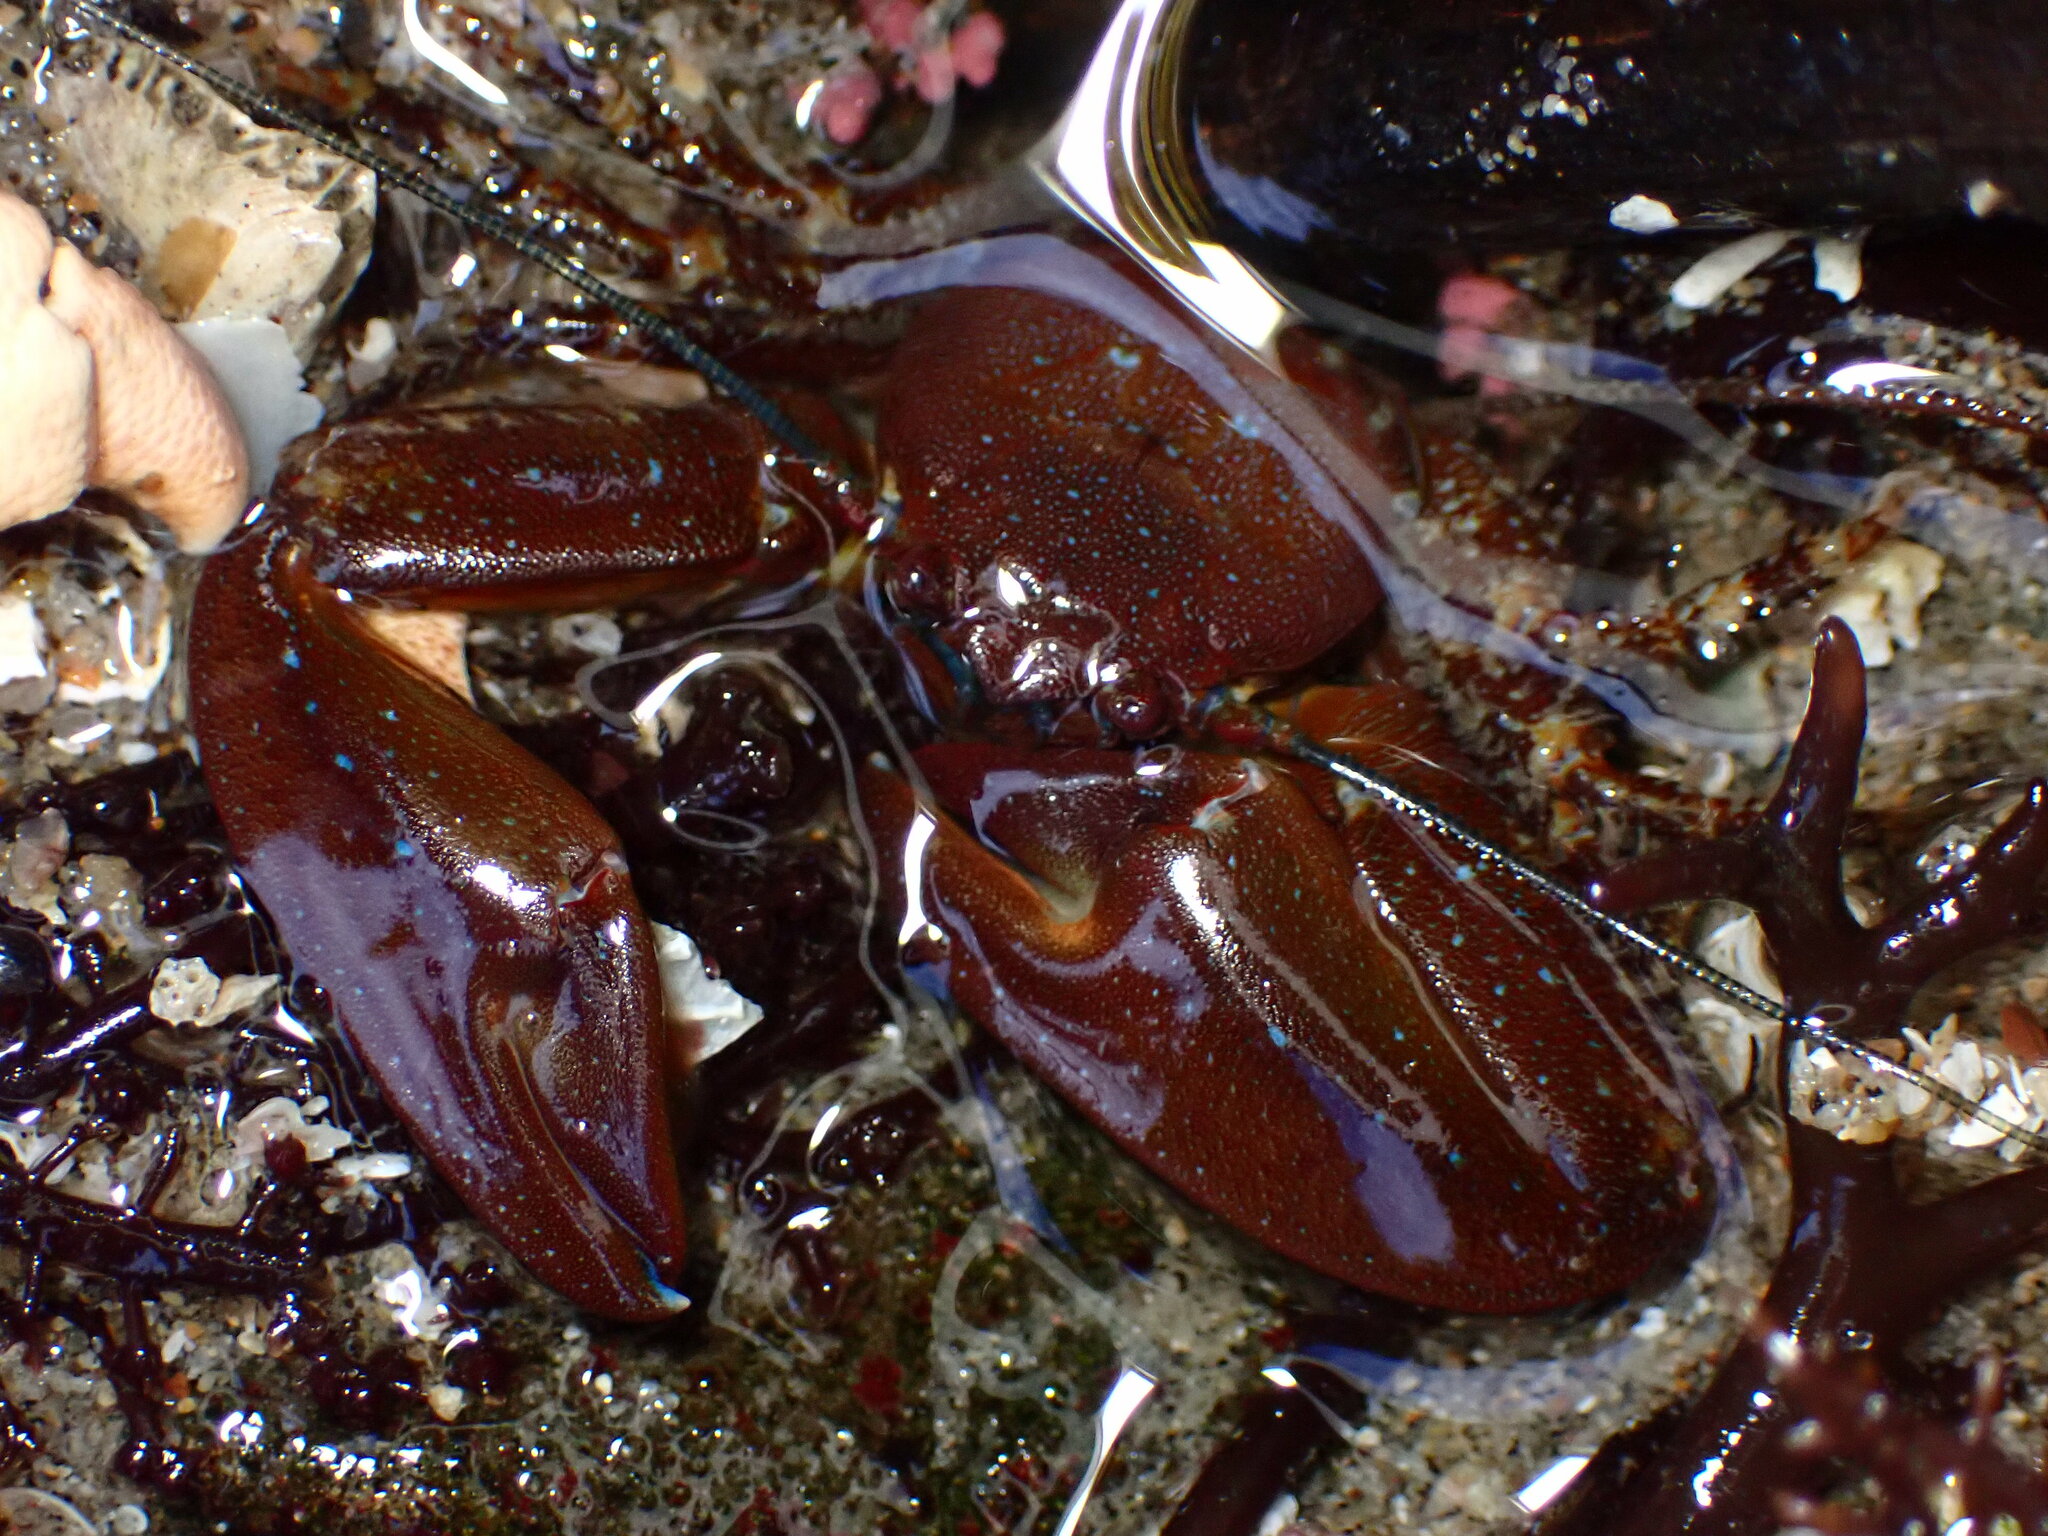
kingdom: Animalia
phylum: Arthropoda
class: Malacostraca
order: Decapoda
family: Porcellanidae
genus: Petrolisthes
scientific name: Petrolisthes manimaculis
